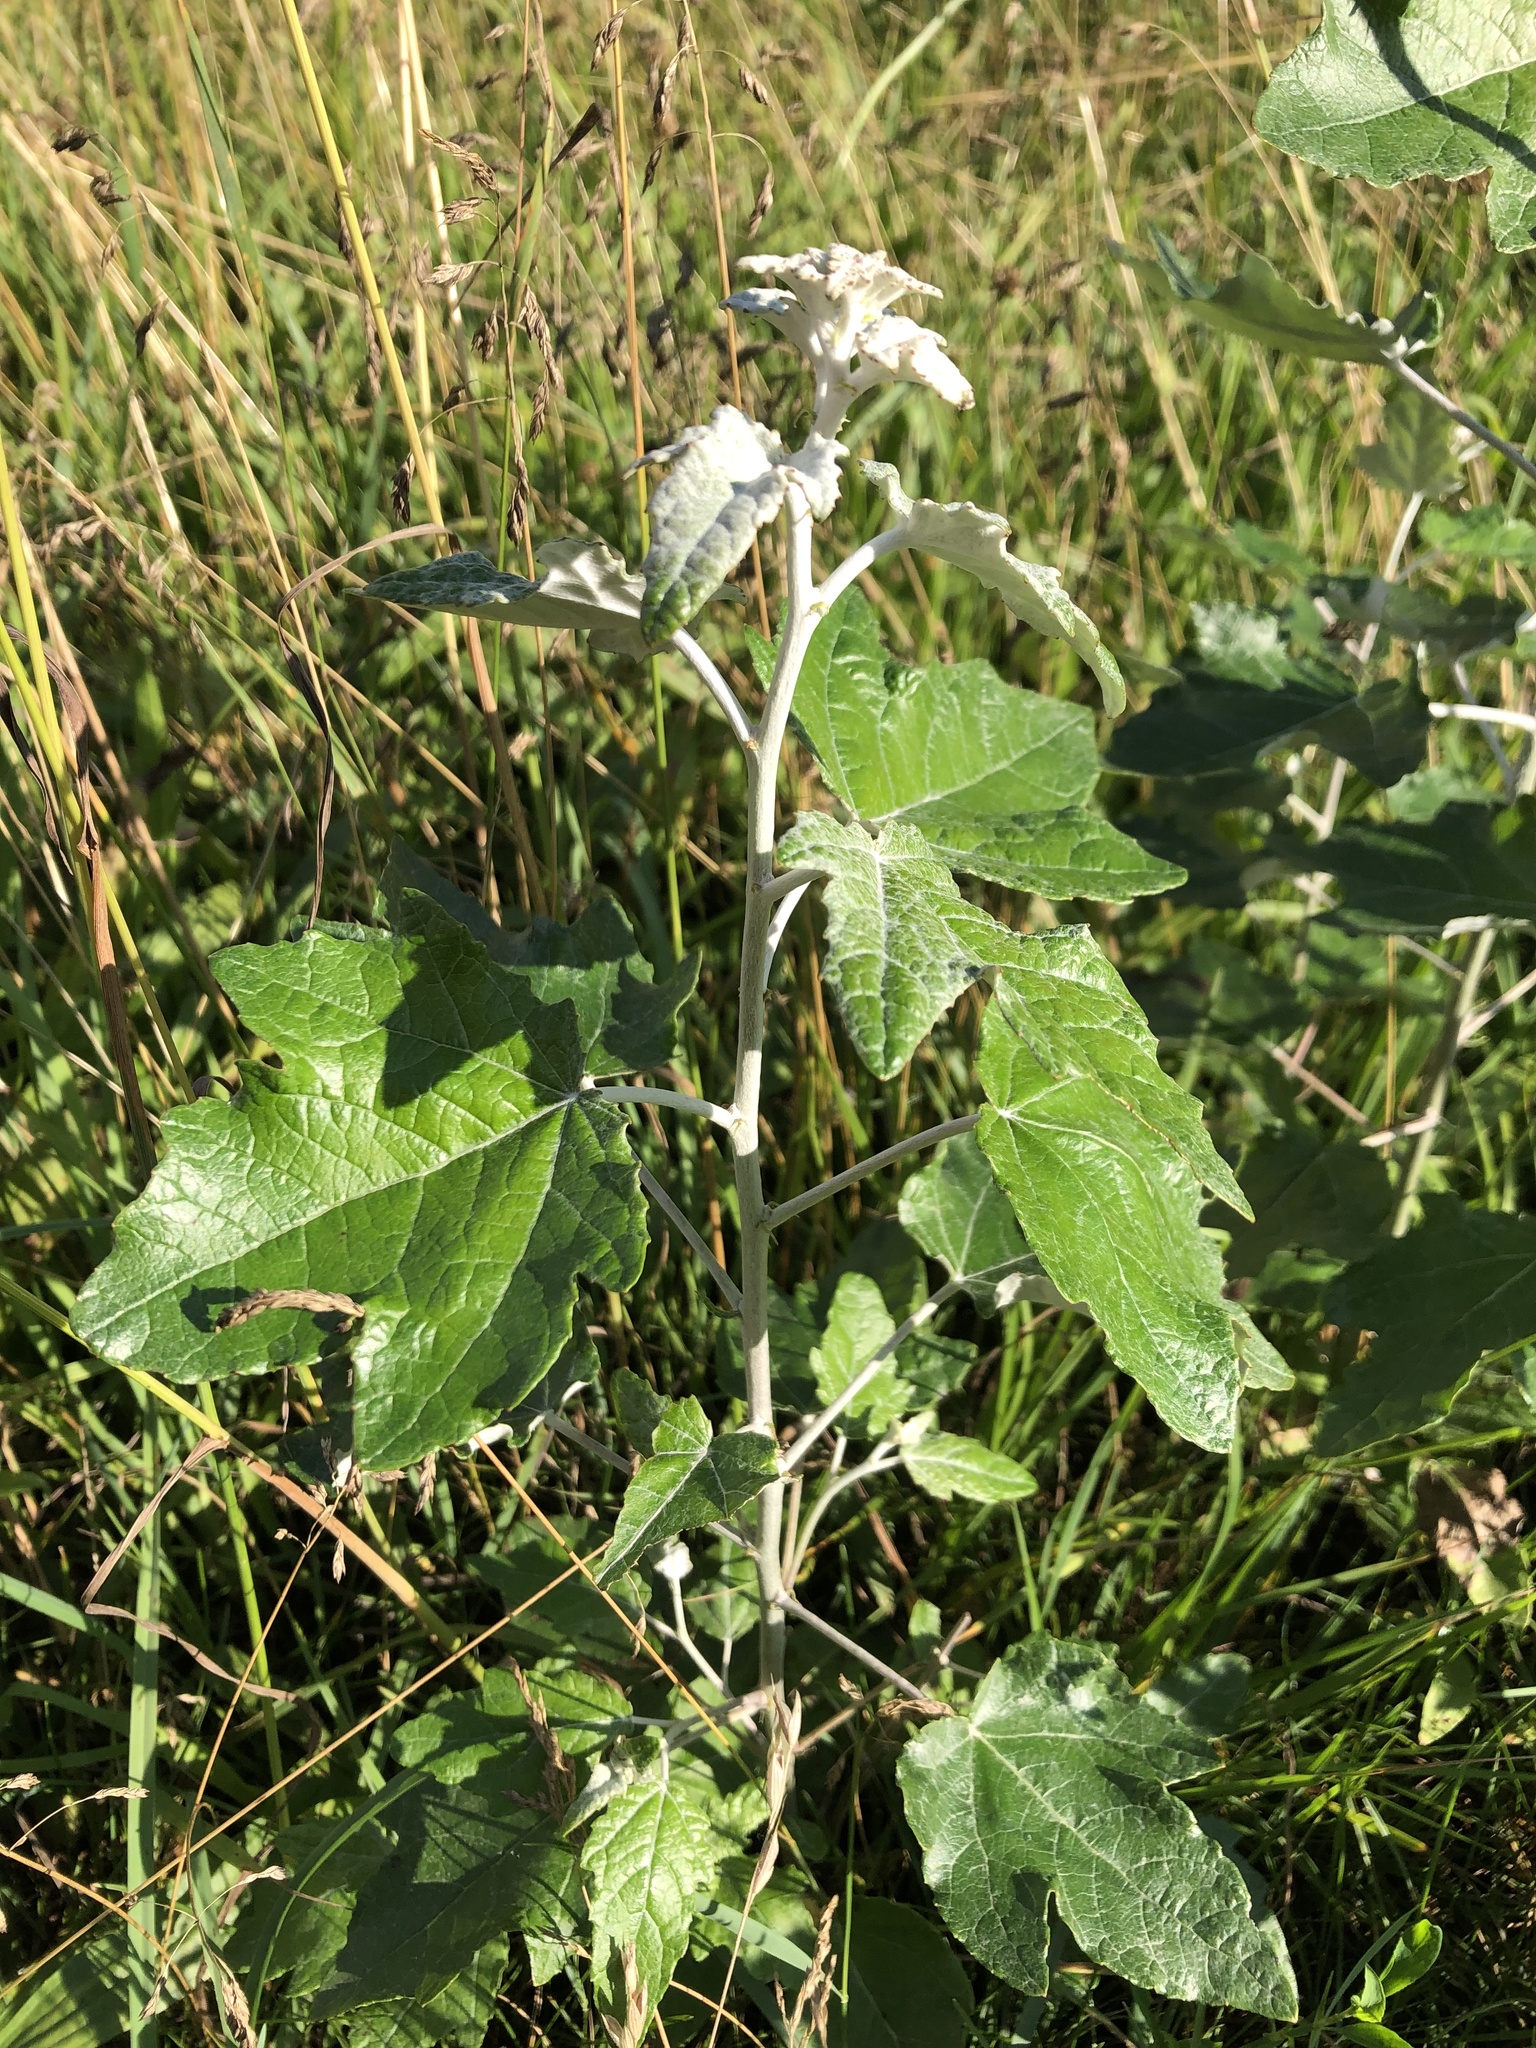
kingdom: Plantae
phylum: Tracheophyta
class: Magnoliopsida
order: Malpighiales
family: Salicaceae
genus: Populus
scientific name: Populus alba
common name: White poplar
